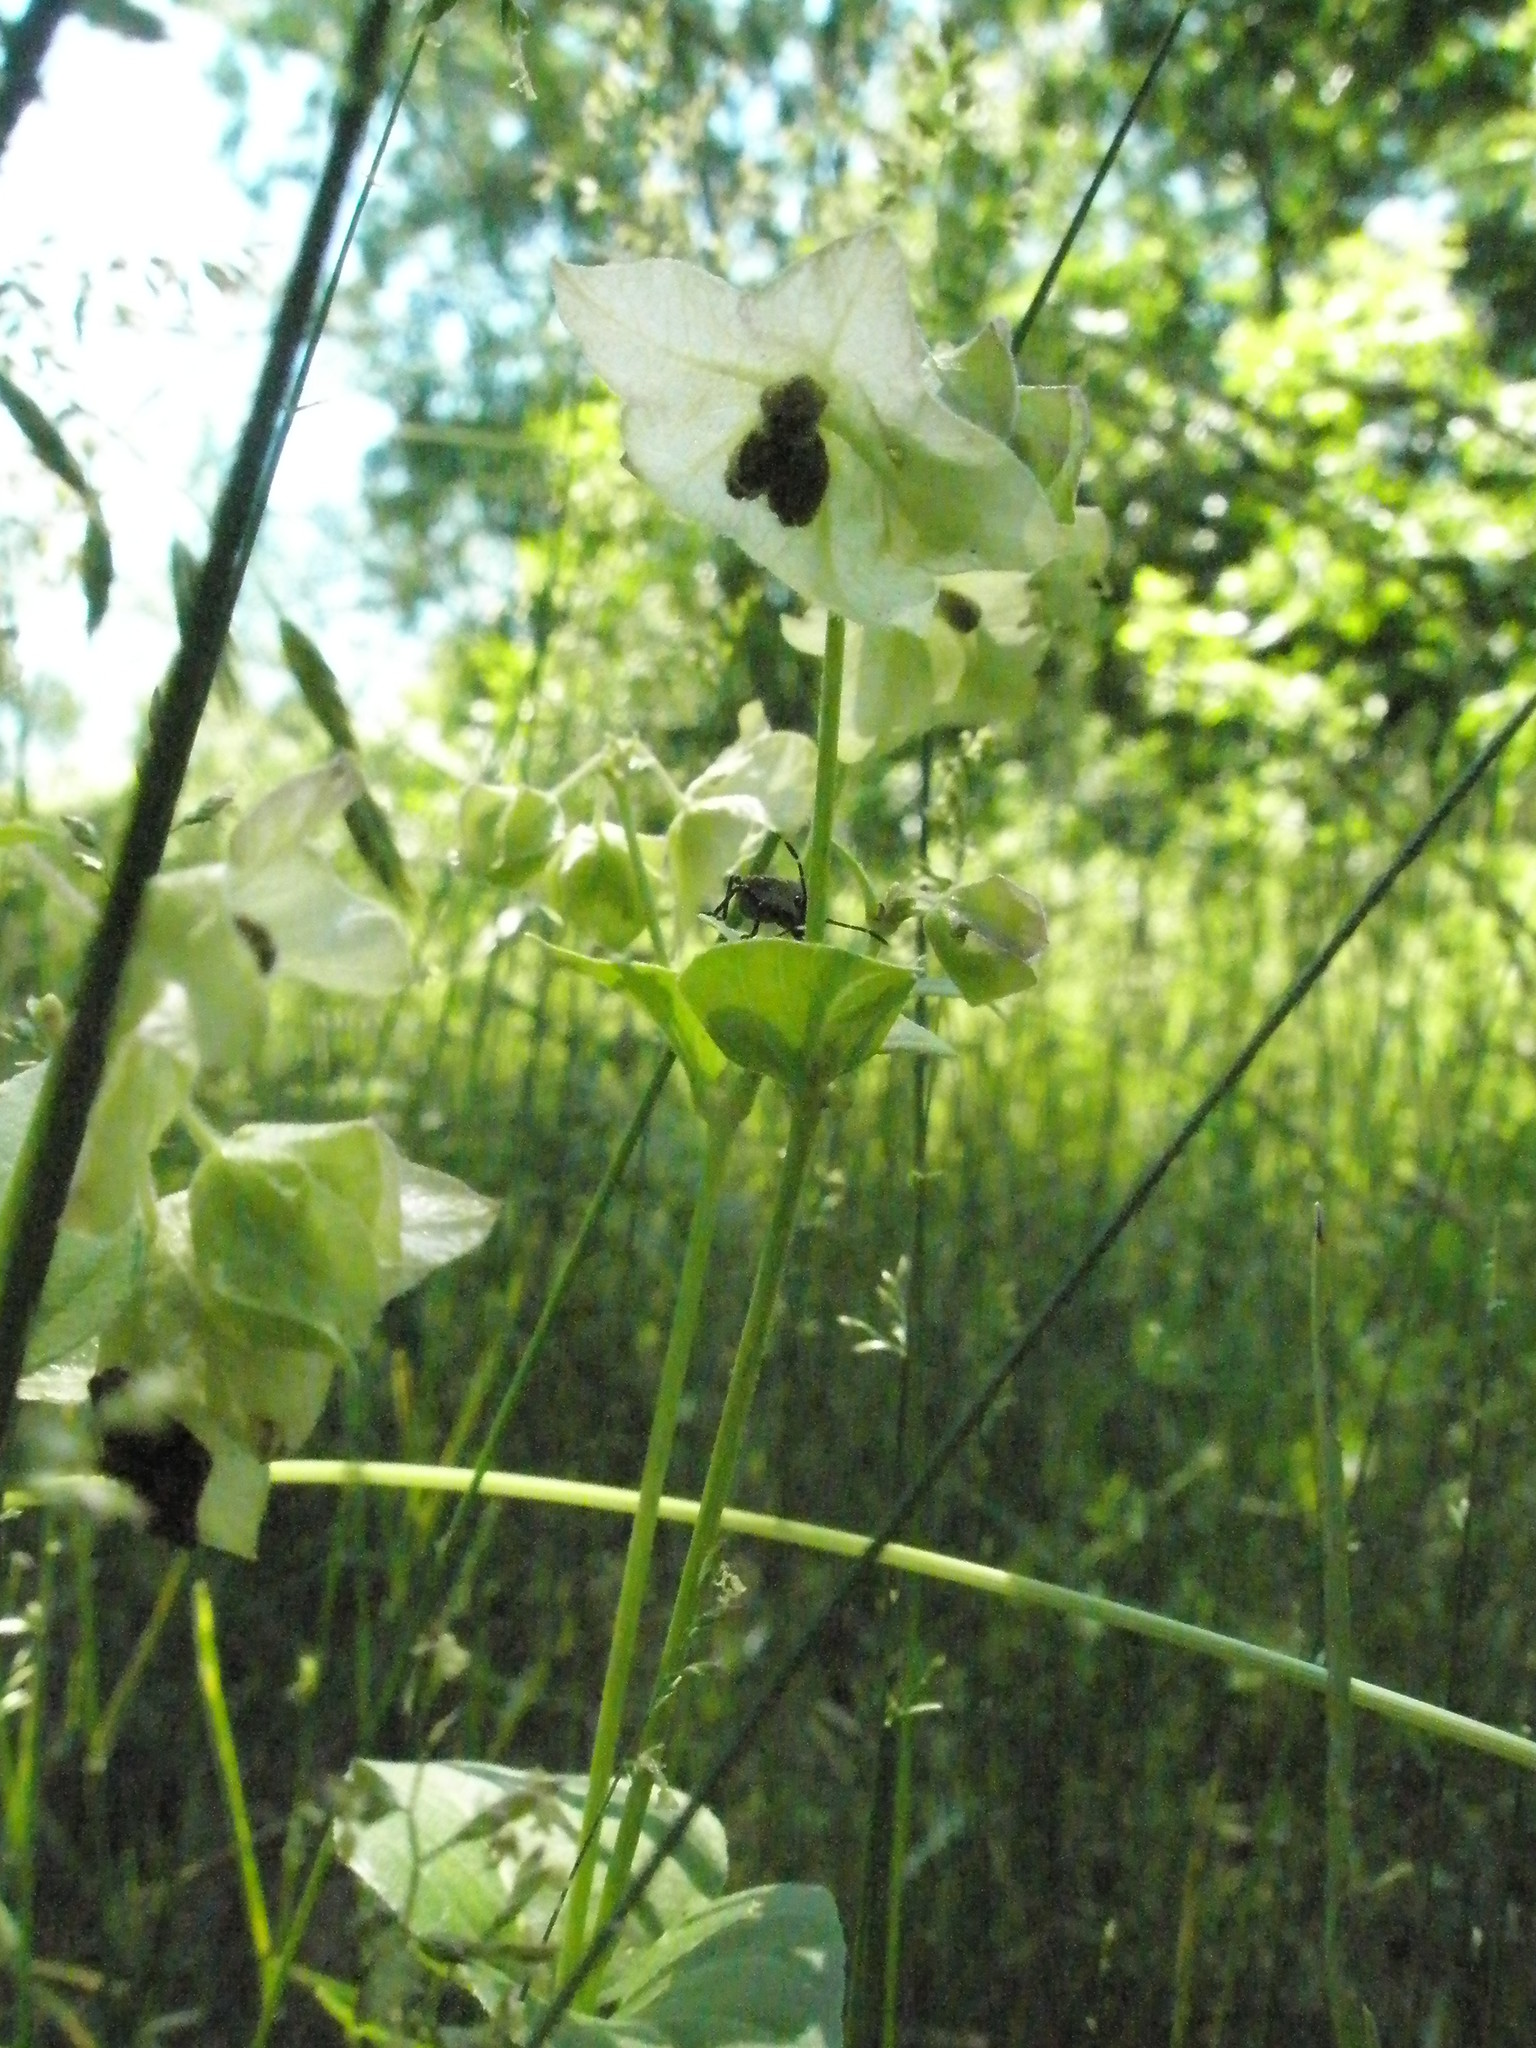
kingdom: Plantae
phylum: Tracheophyta
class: Magnoliopsida
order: Caryophyllales
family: Nyctaginaceae
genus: Mirabilis
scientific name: Mirabilis nyctaginea
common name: Umbrella wort
